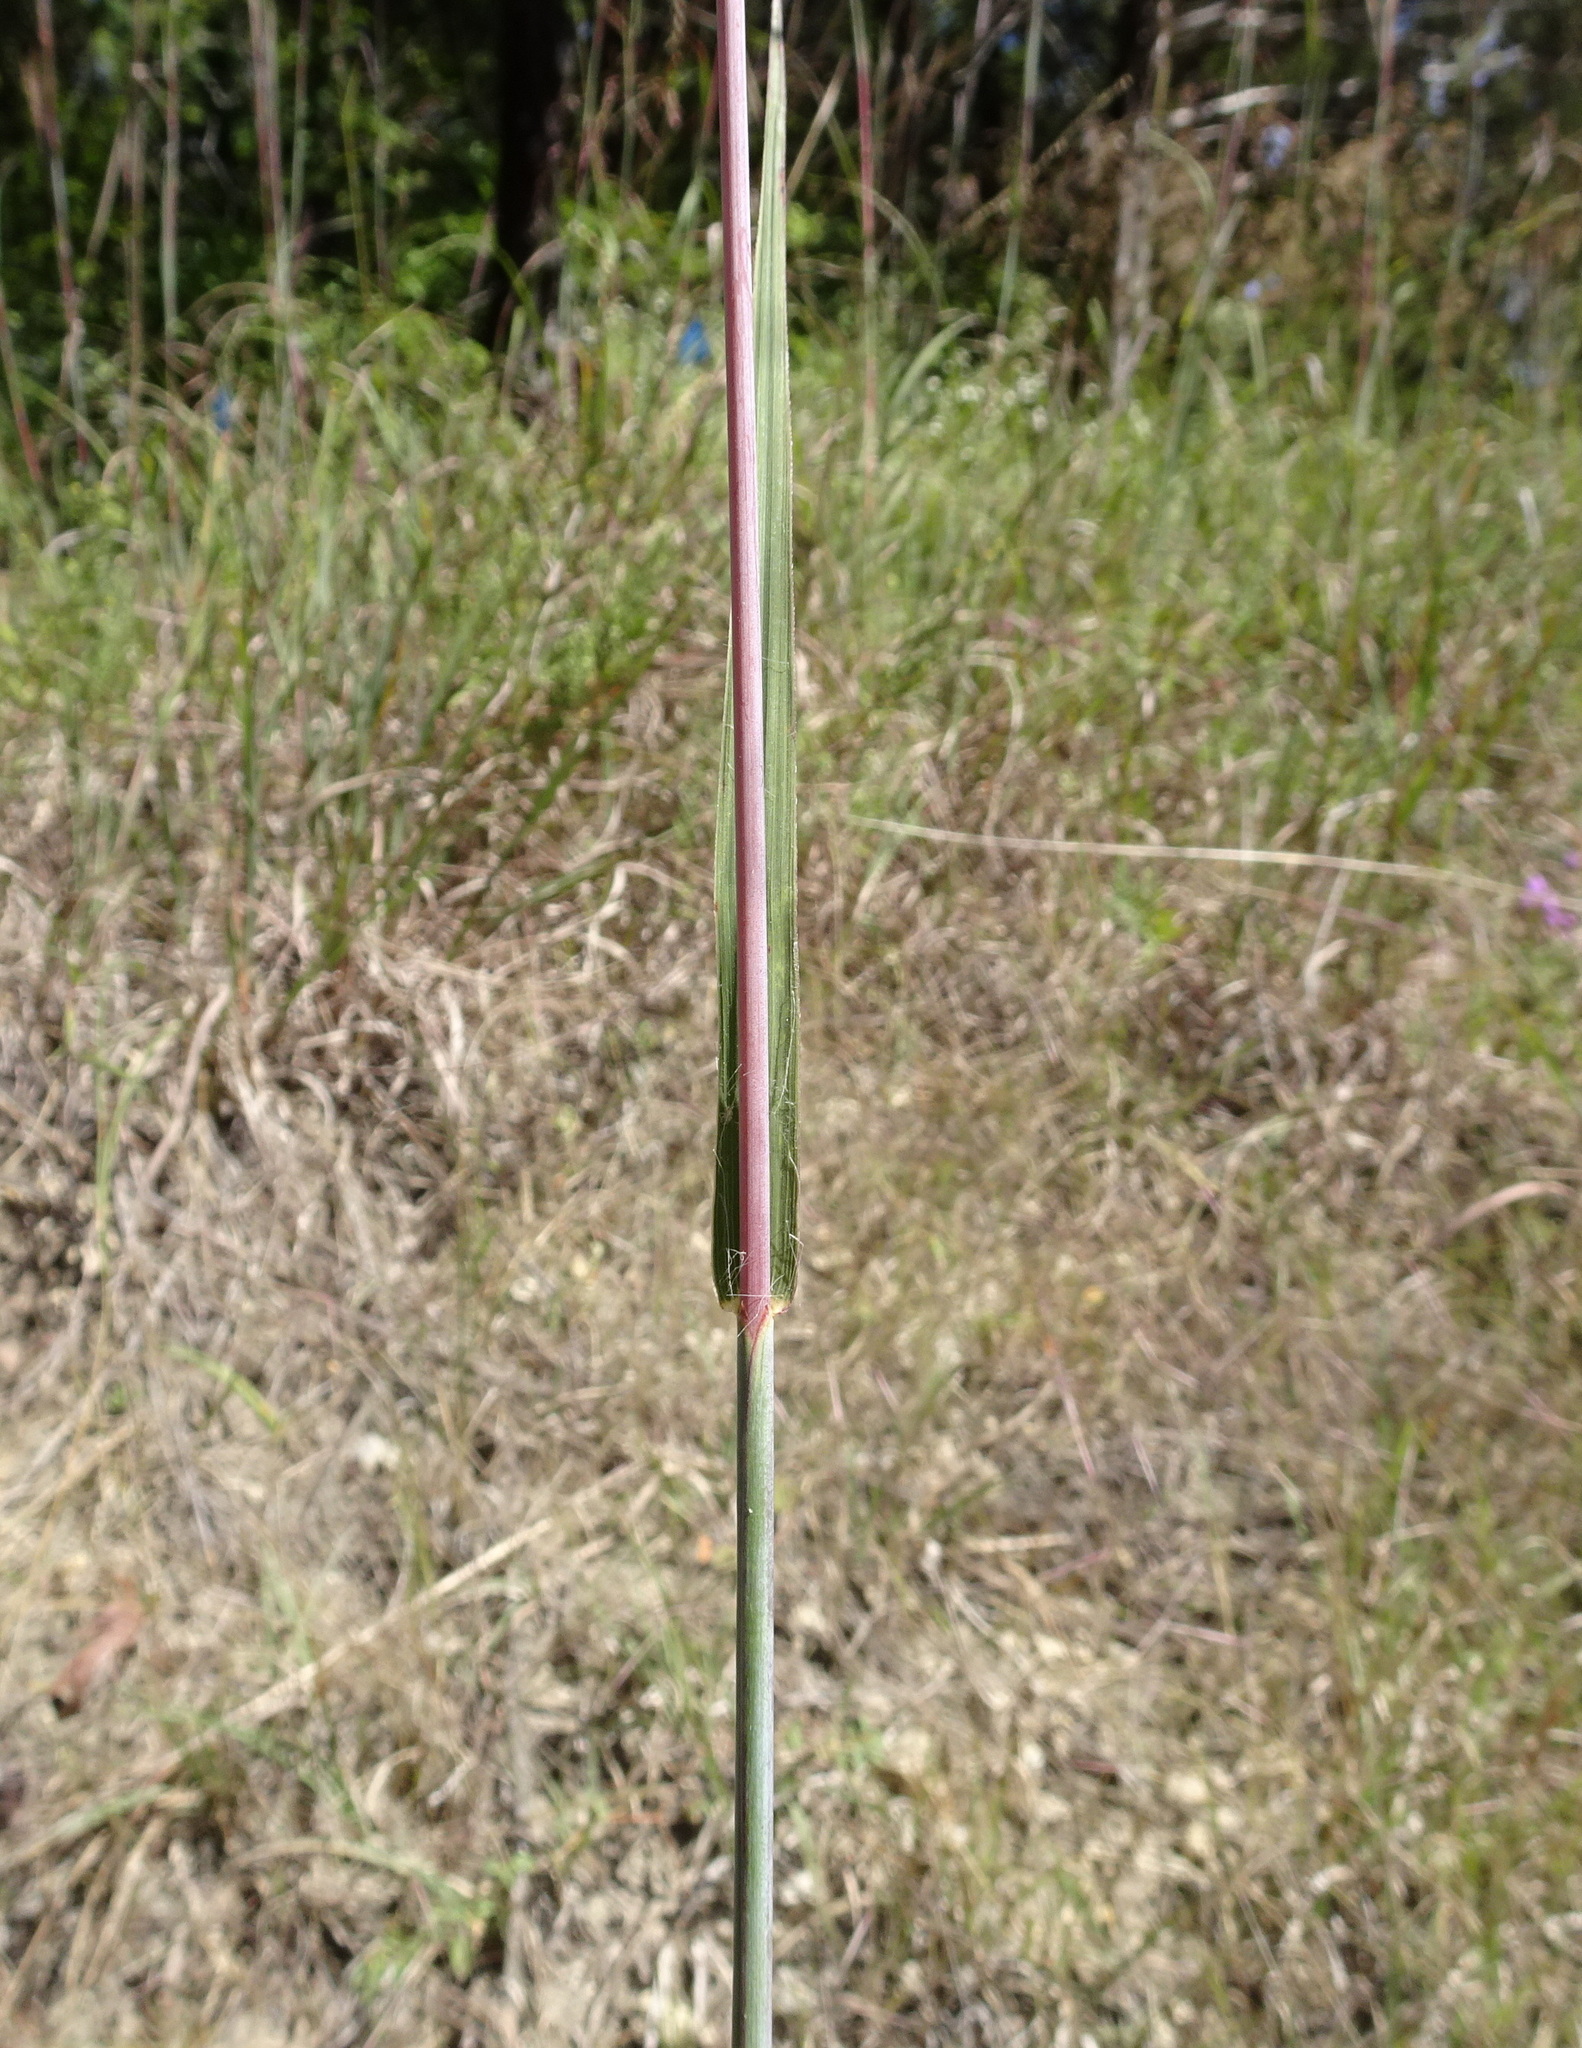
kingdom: Plantae
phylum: Tracheophyta
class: Liliopsida
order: Poales
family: Poaceae
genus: Andropogon
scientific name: Andropogon gerardi
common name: Big bluestem
